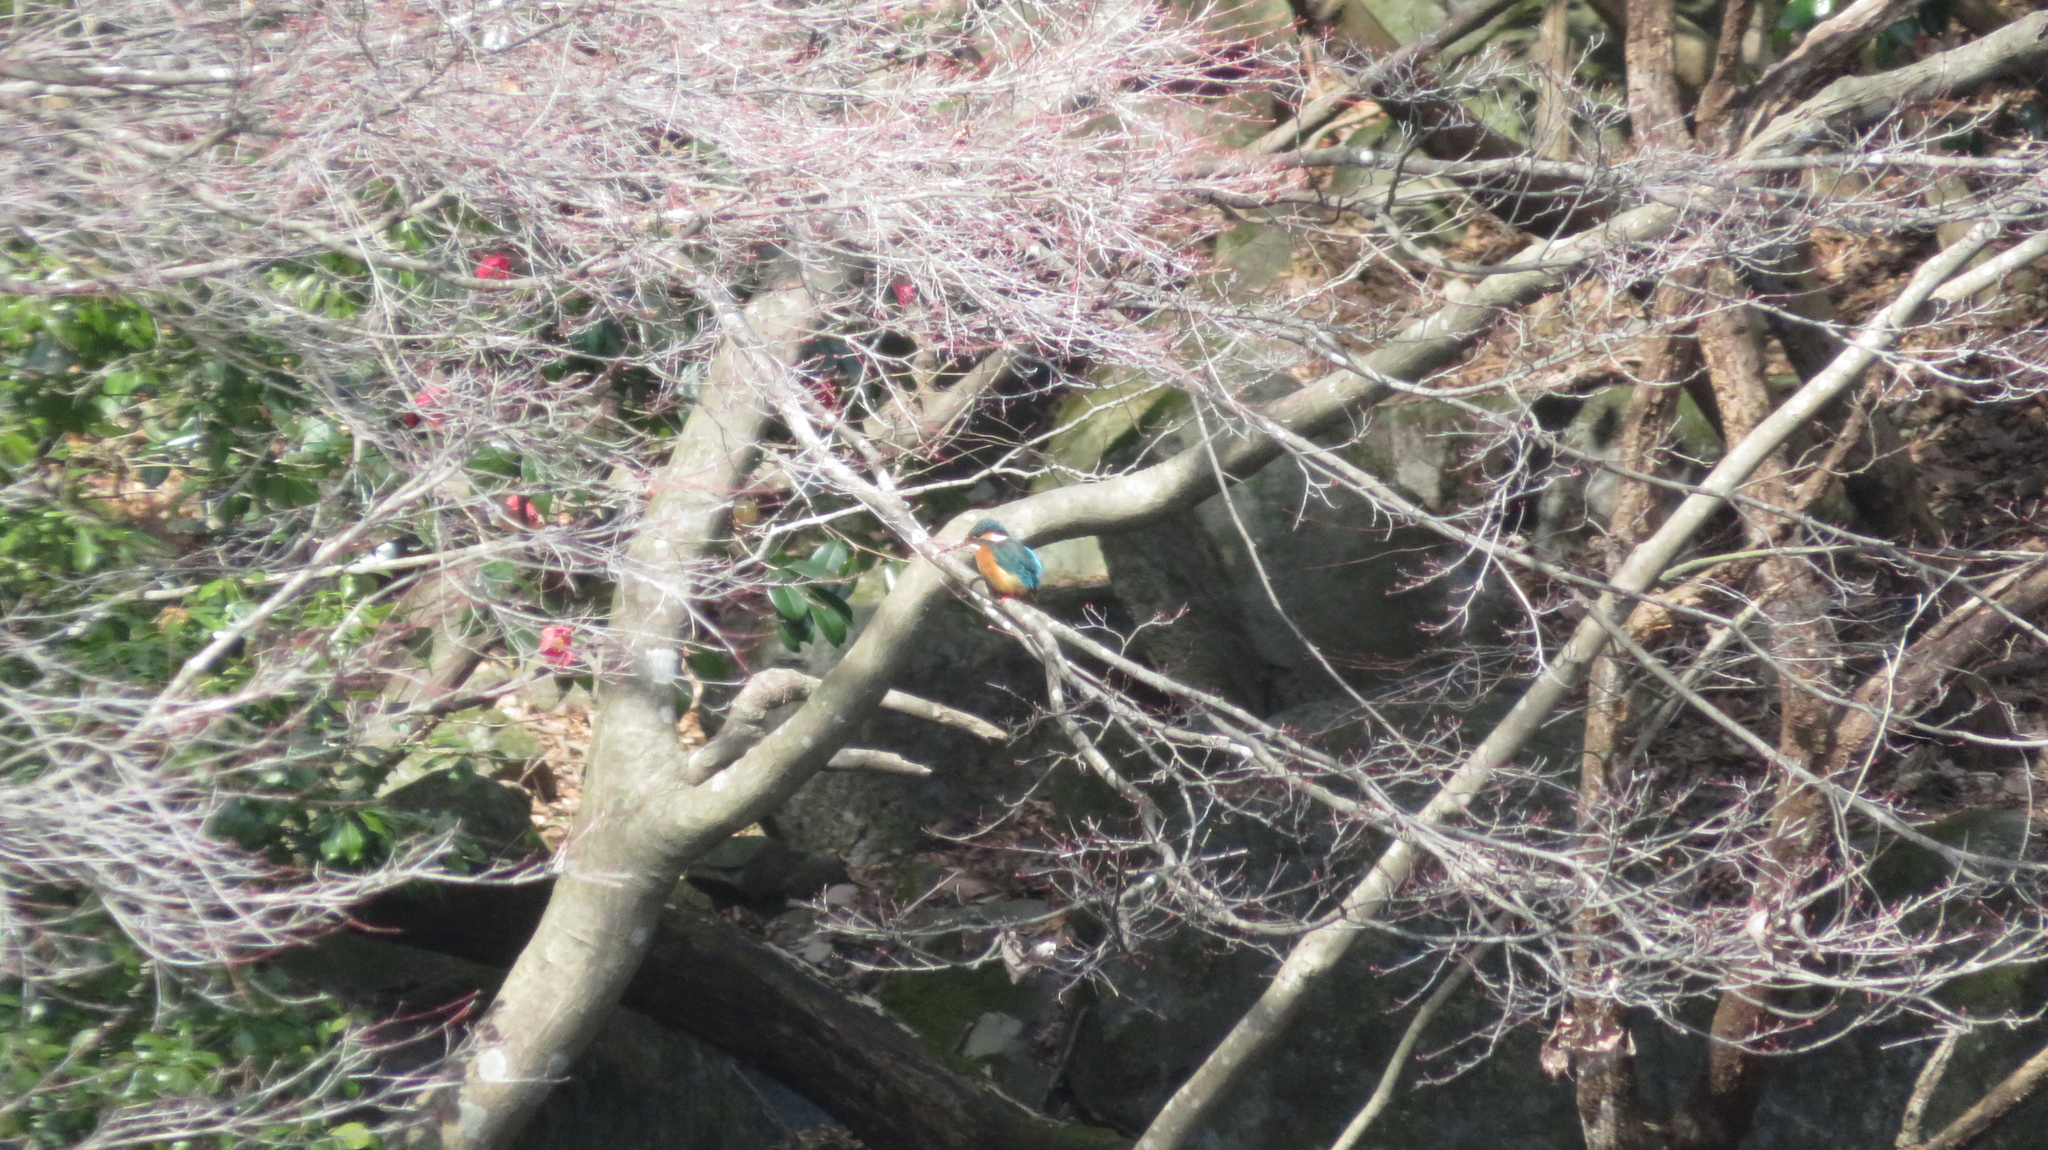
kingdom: Animalia
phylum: Chordata
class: Aves
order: Coraciiformes
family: Alcedinidae
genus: Alcedo
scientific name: Alcedo atthis
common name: Common kingfisher
